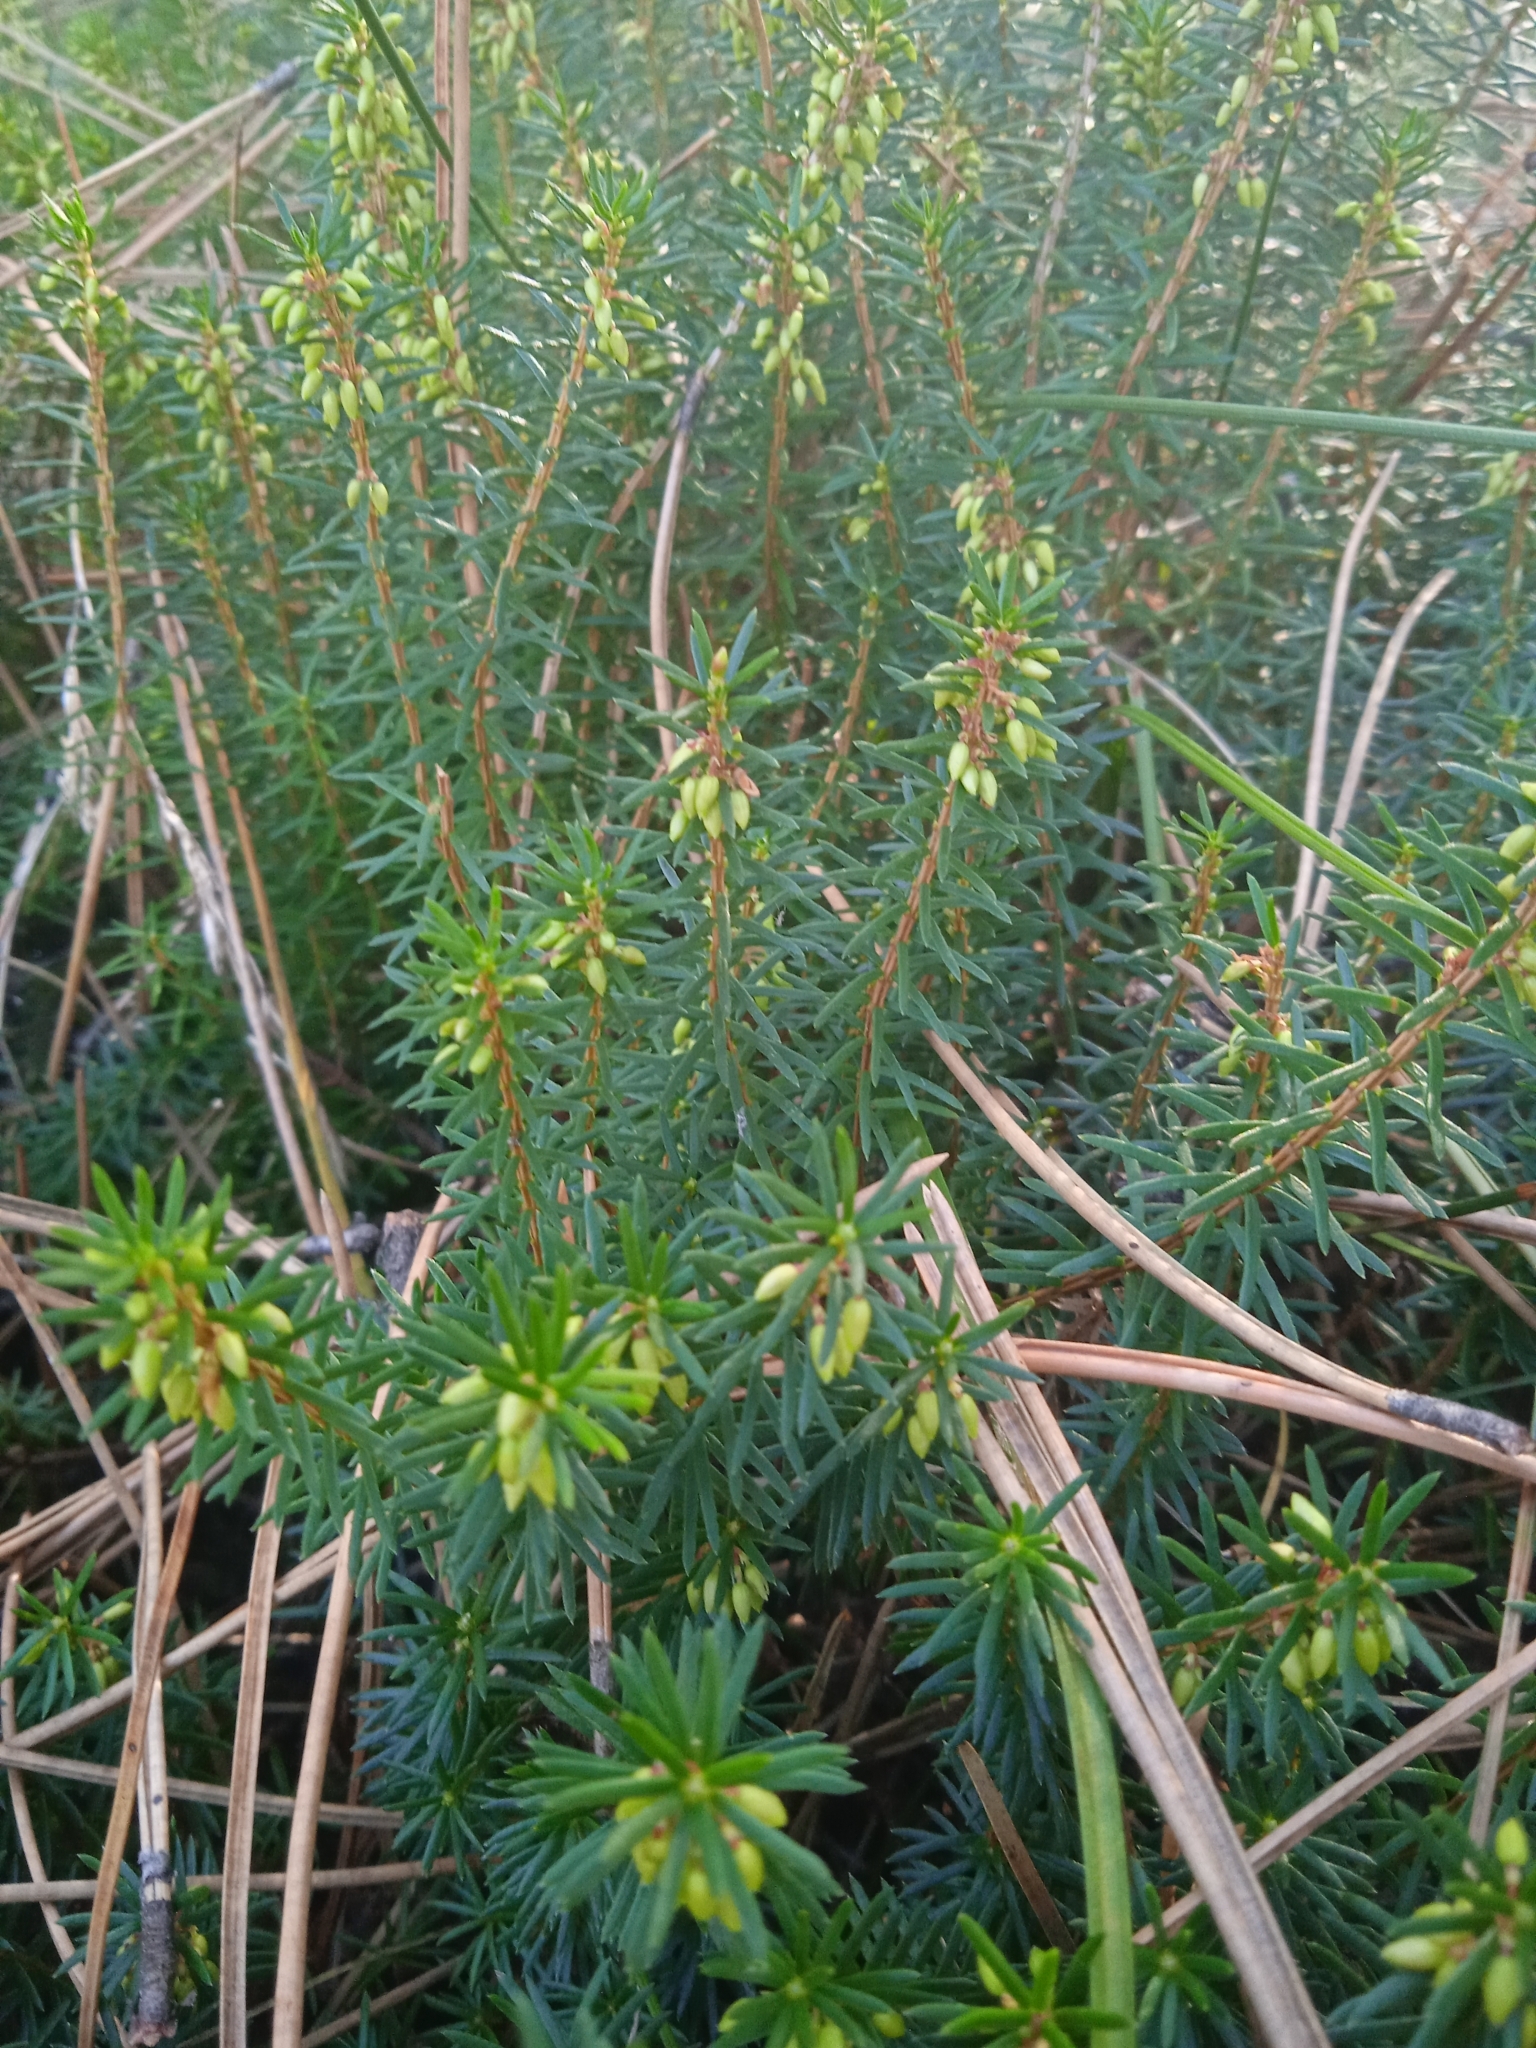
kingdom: Plantae
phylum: Tracheophyta
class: Magnoliopsida
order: Ericales
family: Ericaceae
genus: Erica
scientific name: Erica carnea
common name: Winter heath
